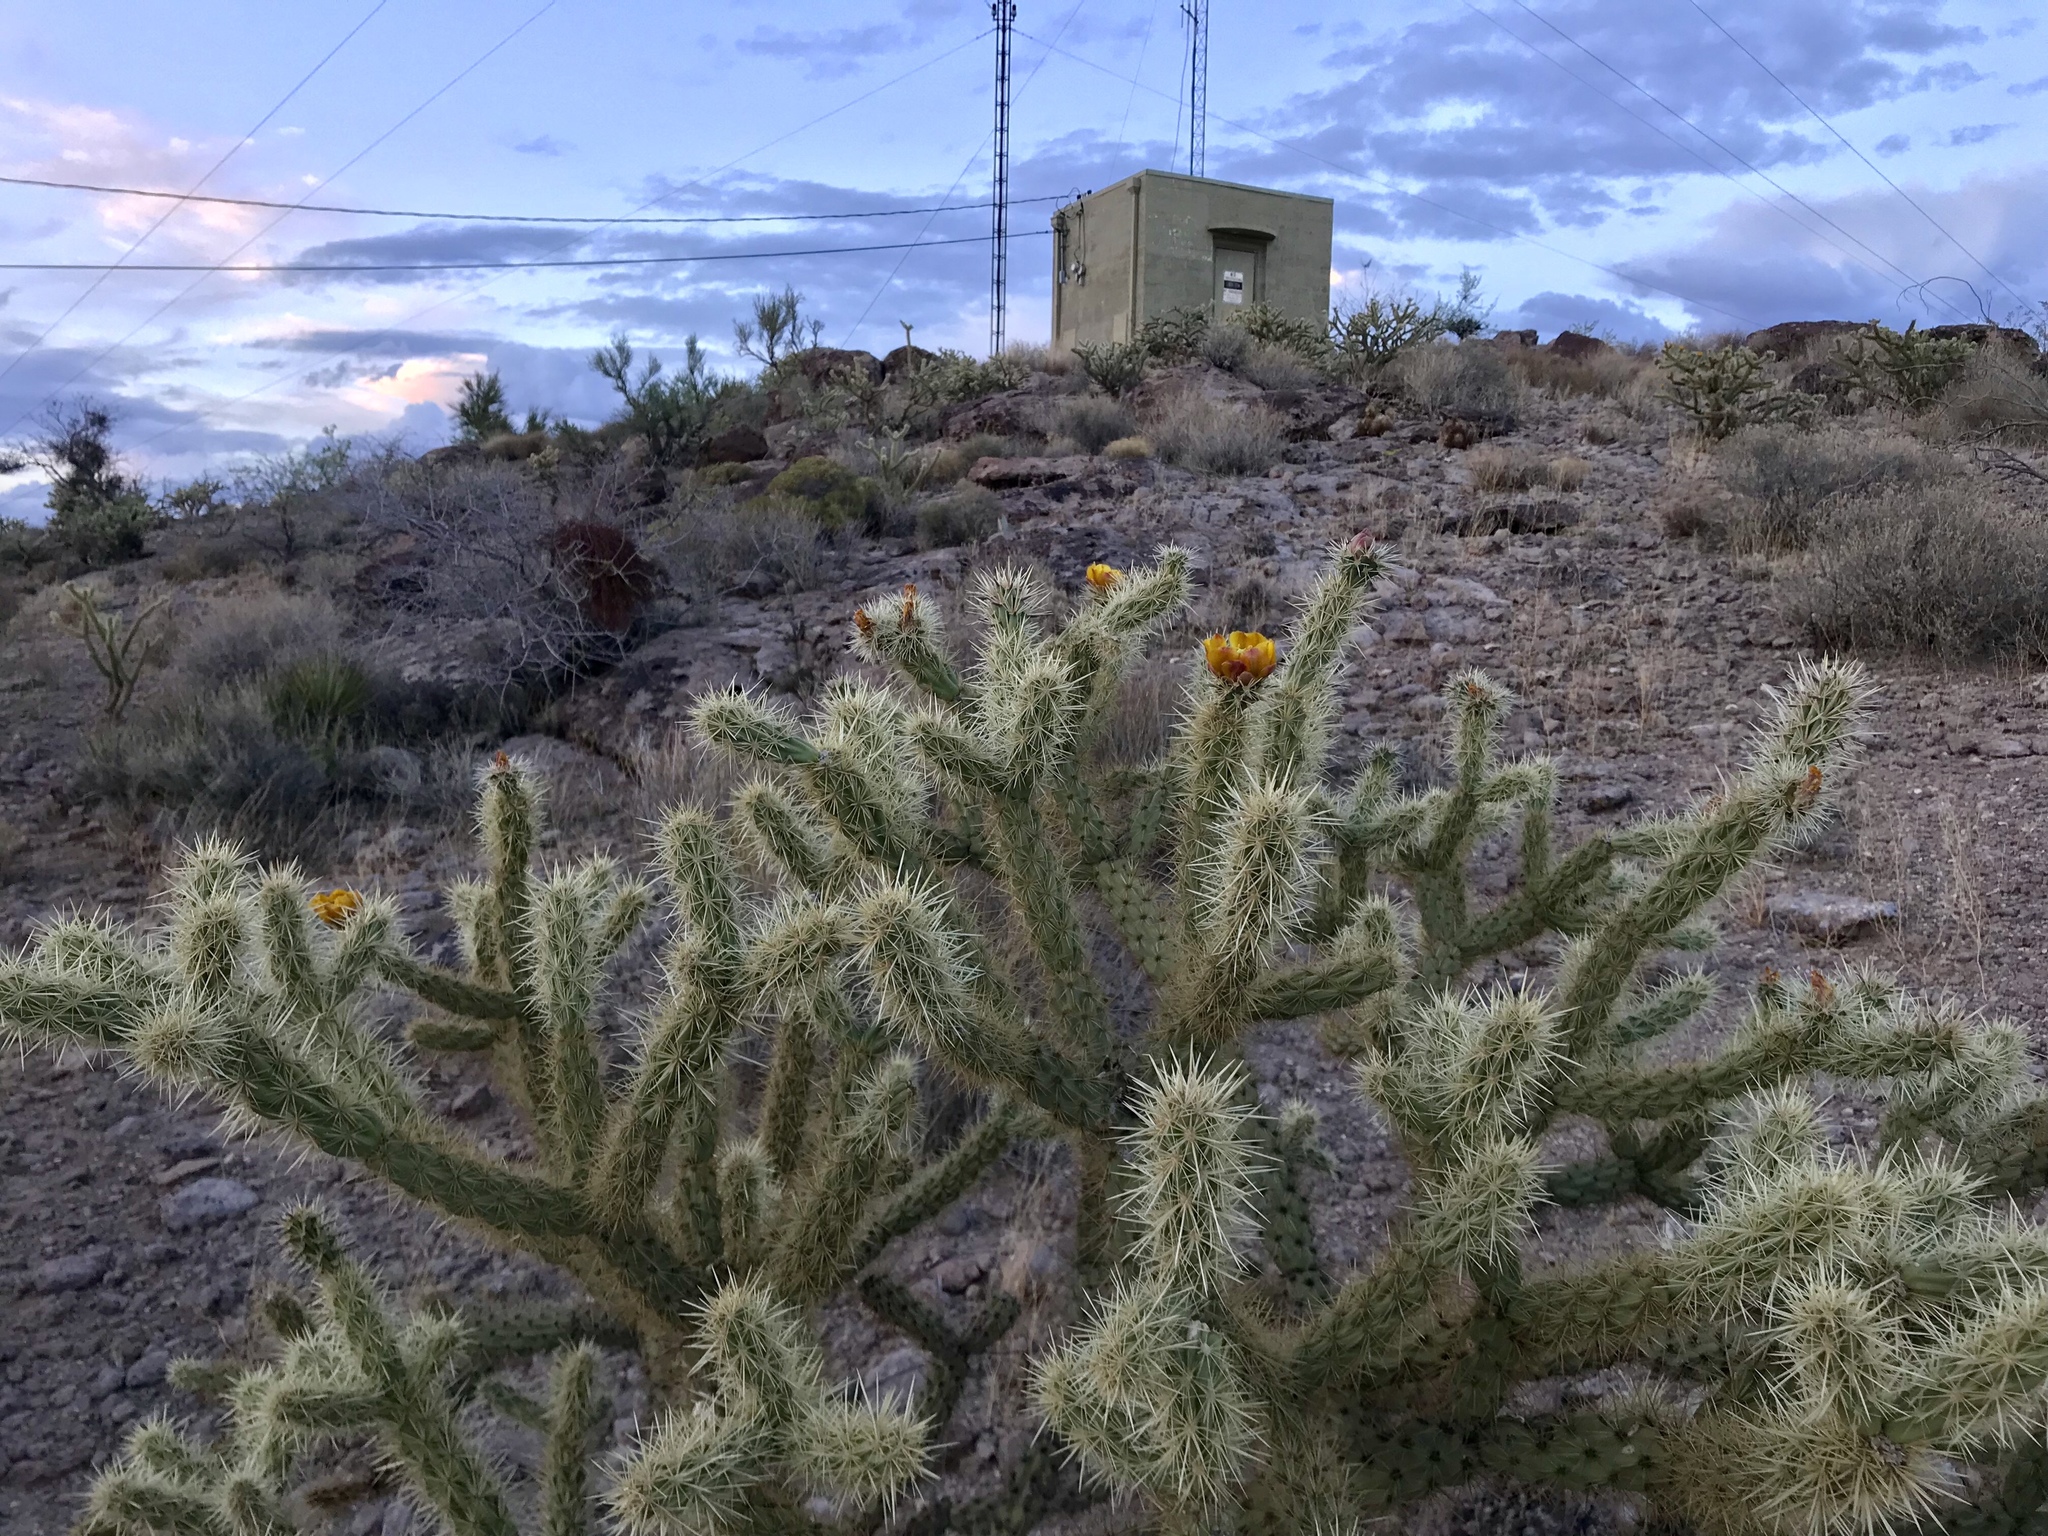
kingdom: Plantae
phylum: Tracheophyta
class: Magnoliopsida
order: Caryophyllales
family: Cactaceae
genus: Cylindropuntia
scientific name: Cylindropuntia acanthocarpa
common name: Buckhorn cholla
